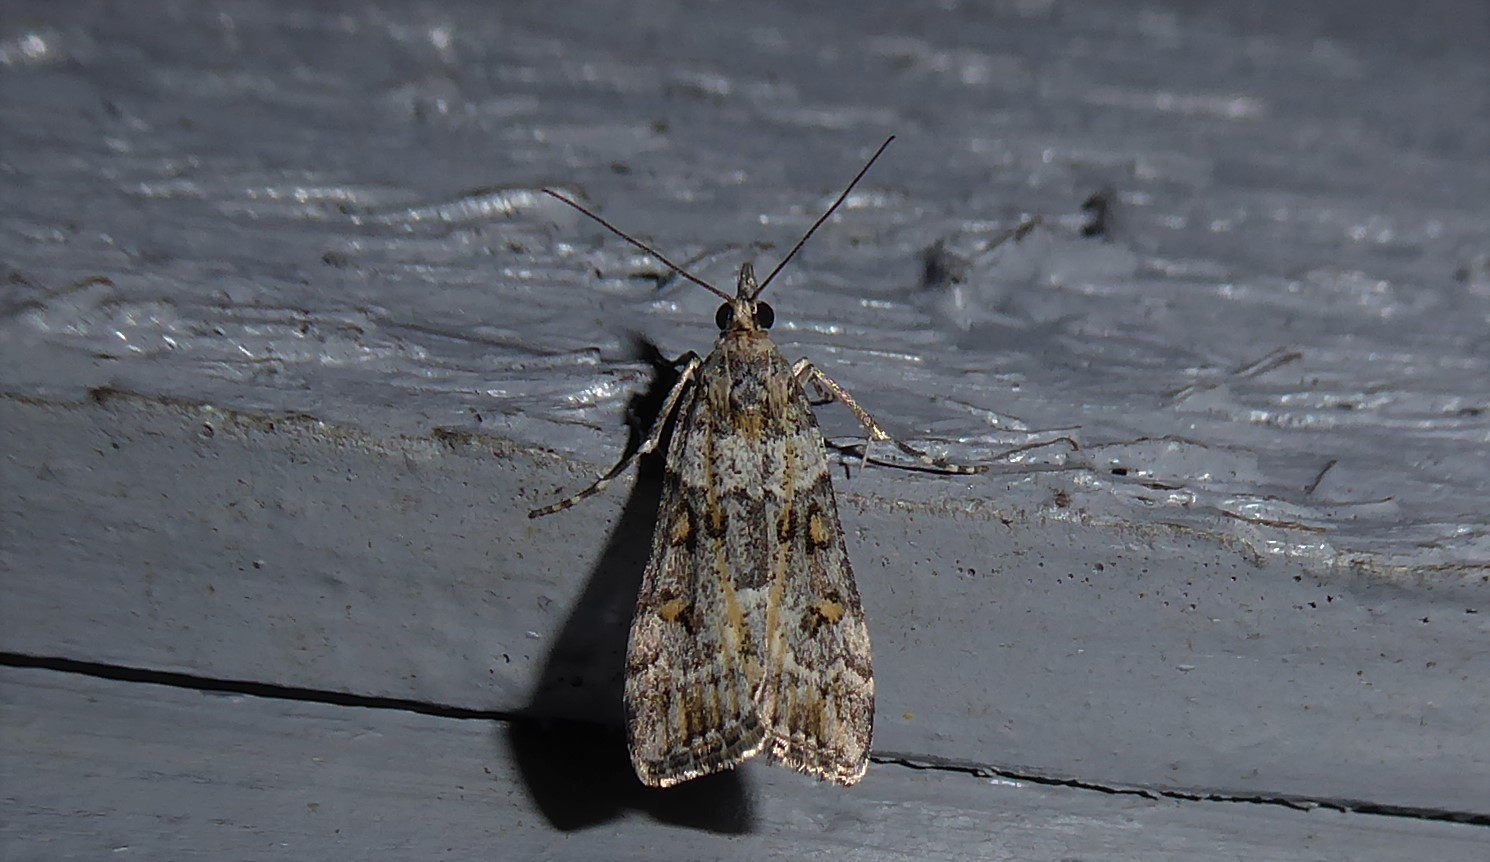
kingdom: Animalia
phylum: Arthropoda
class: Insecta
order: Lepidoptera
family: Crambidae
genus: Eudonia
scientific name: Eudonia diphtheralis
